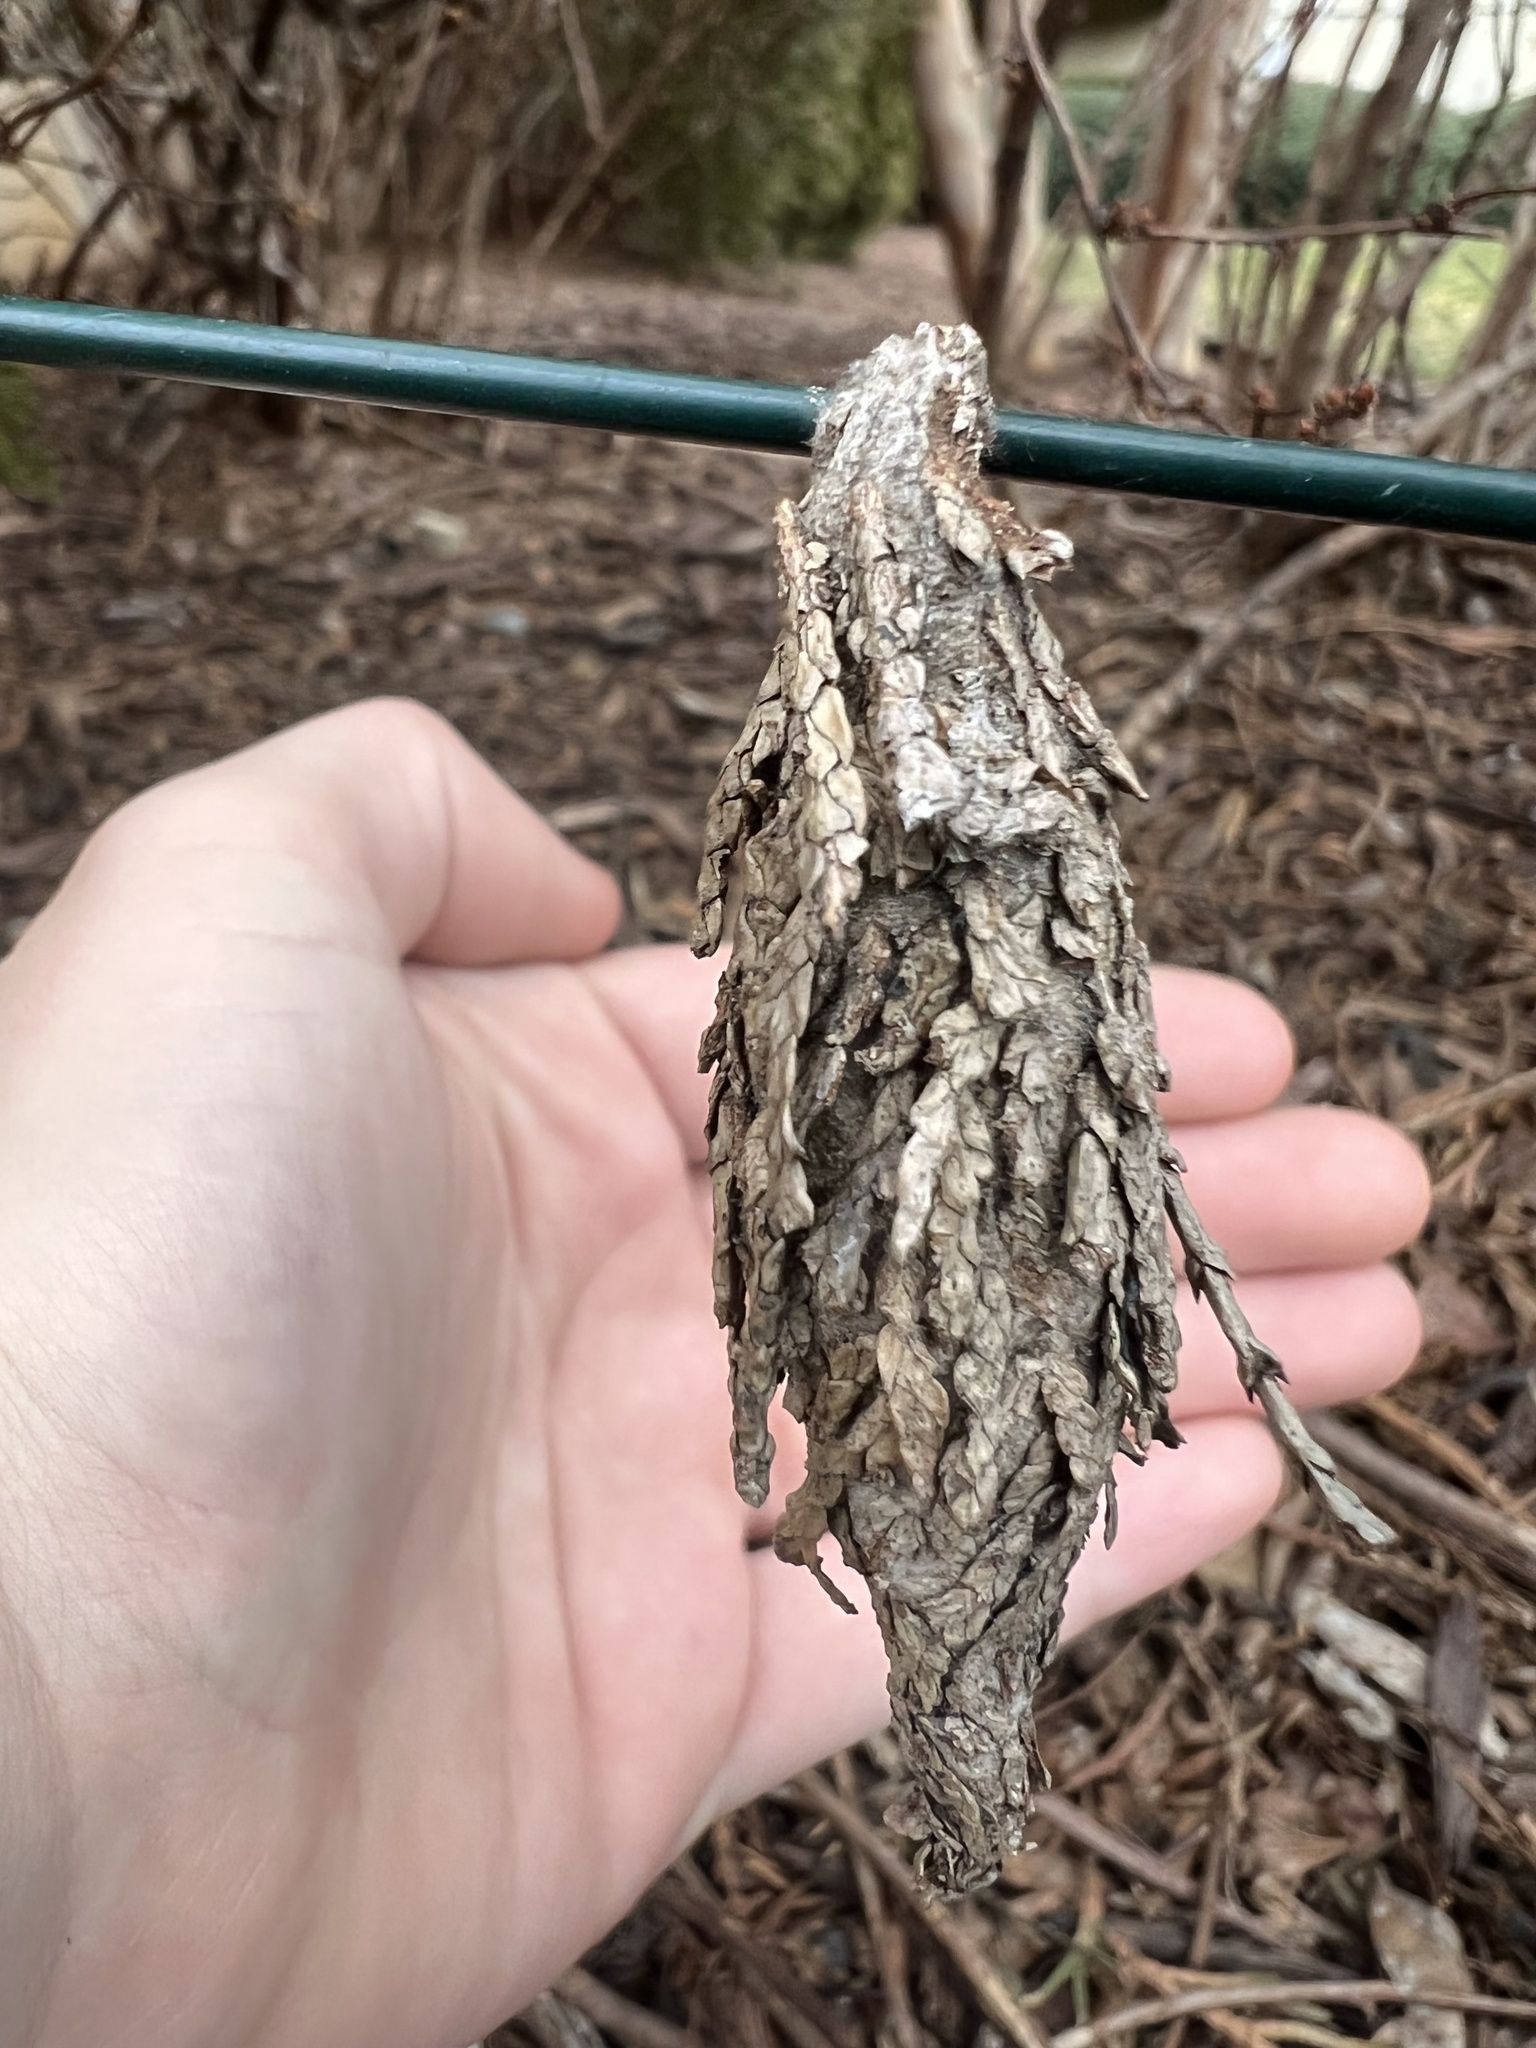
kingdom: Animalia
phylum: Arthropoda
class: Insecta
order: Lepidoptera
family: Psychidae
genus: Thyridopteryx
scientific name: Thyridopteryx ephemeraeformis
